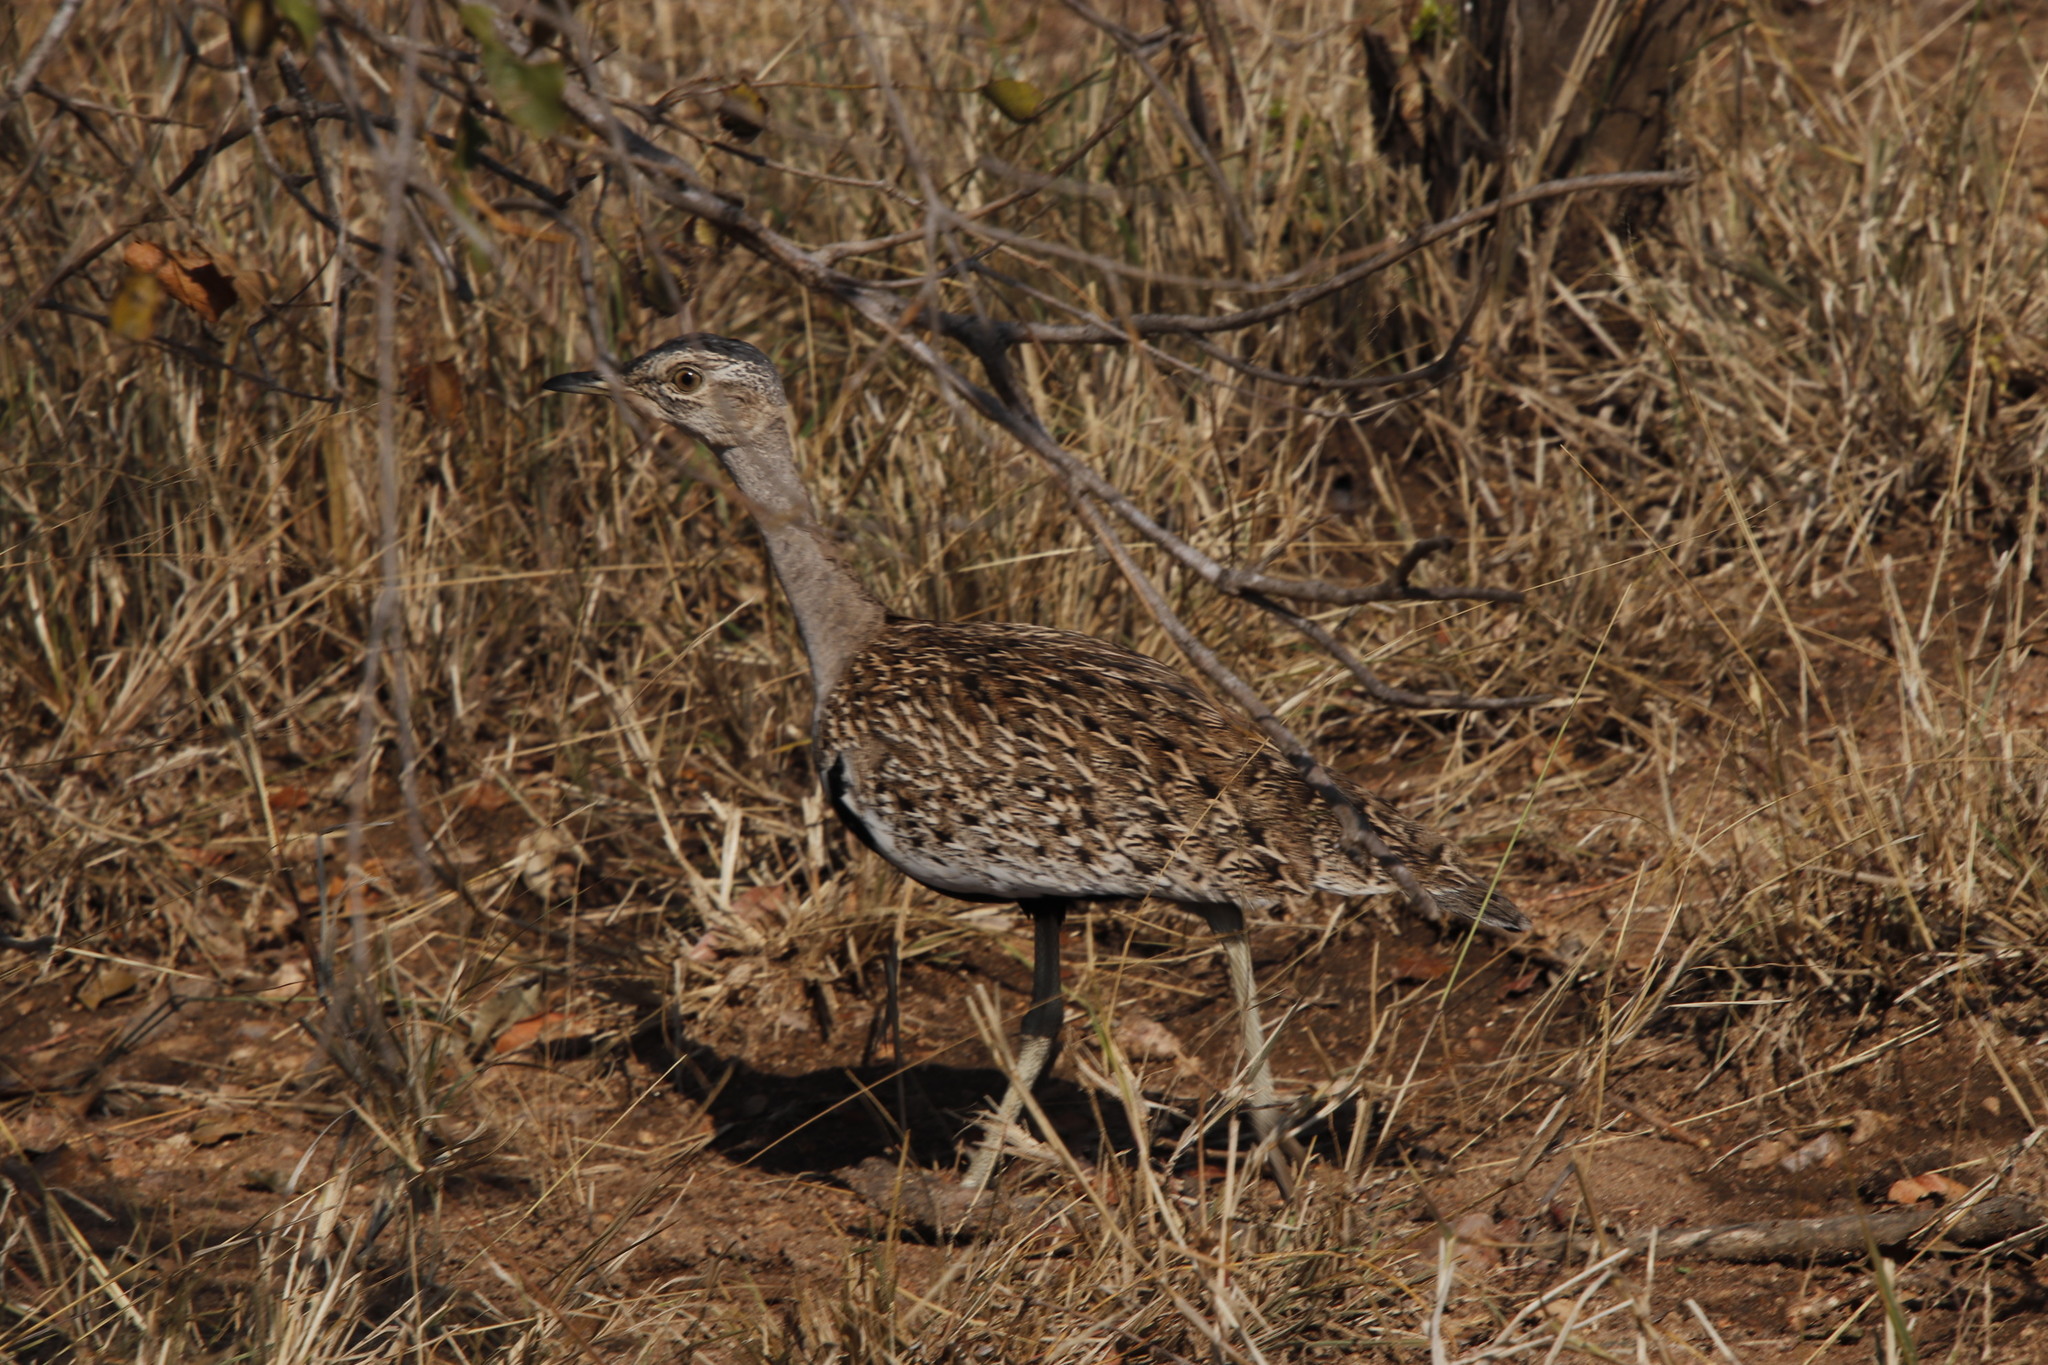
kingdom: Animalia
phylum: Chordata
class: Aves
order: Otidiformes
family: Otididae
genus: Lophotis
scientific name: Lophotis ruficrista
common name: Red-crested korhaan
